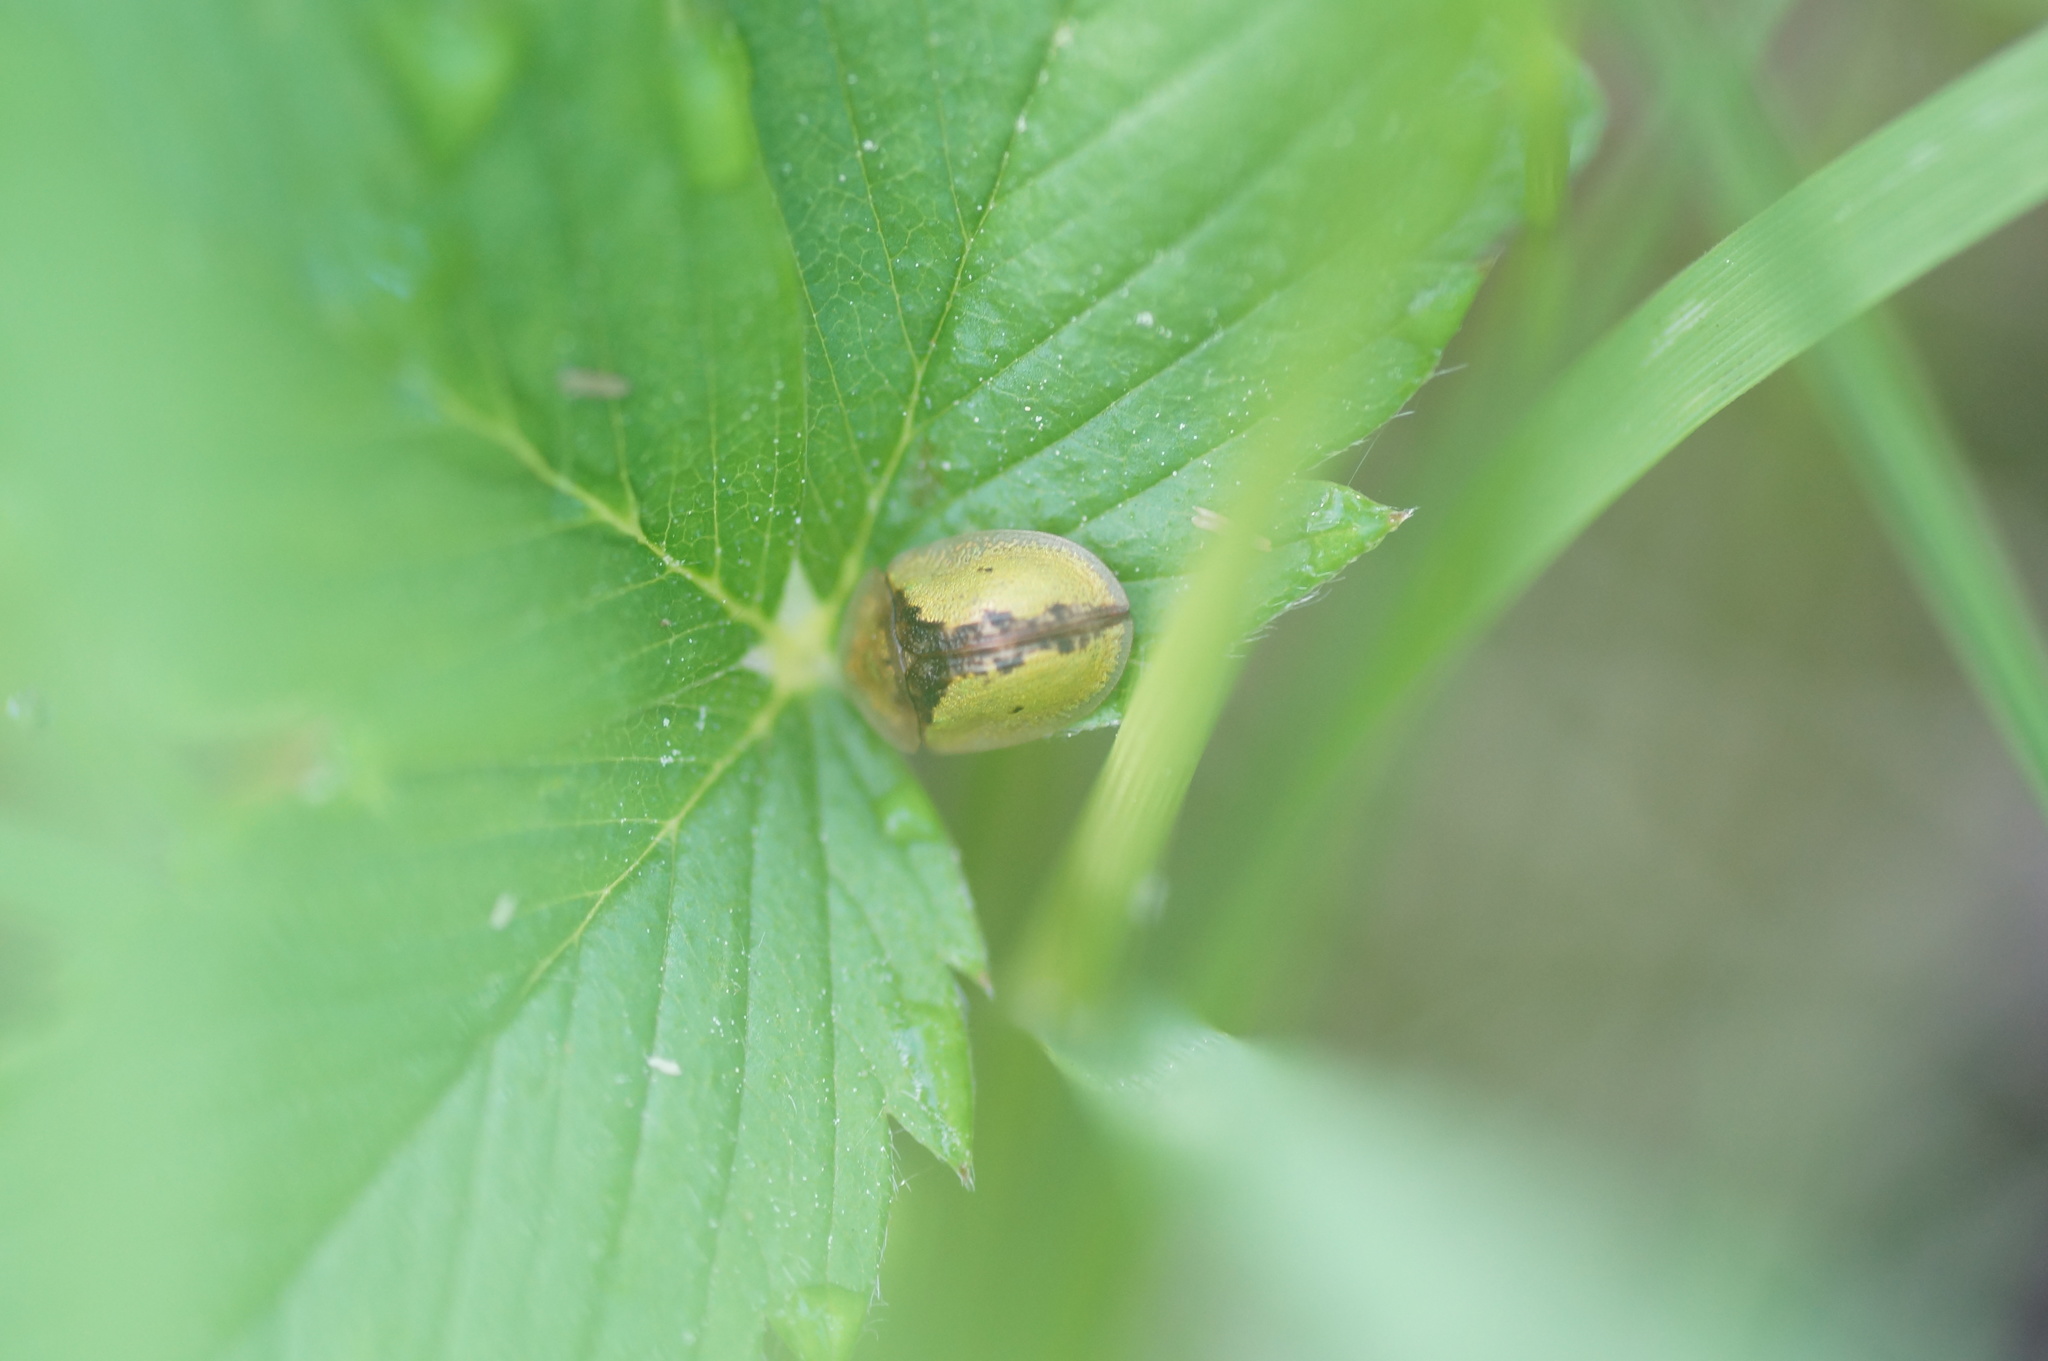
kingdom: Animalia
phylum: Arthropoda
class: Insecta
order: Coleoptera
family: Chrysomelidae
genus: Cassida
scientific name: Cassida vibex
